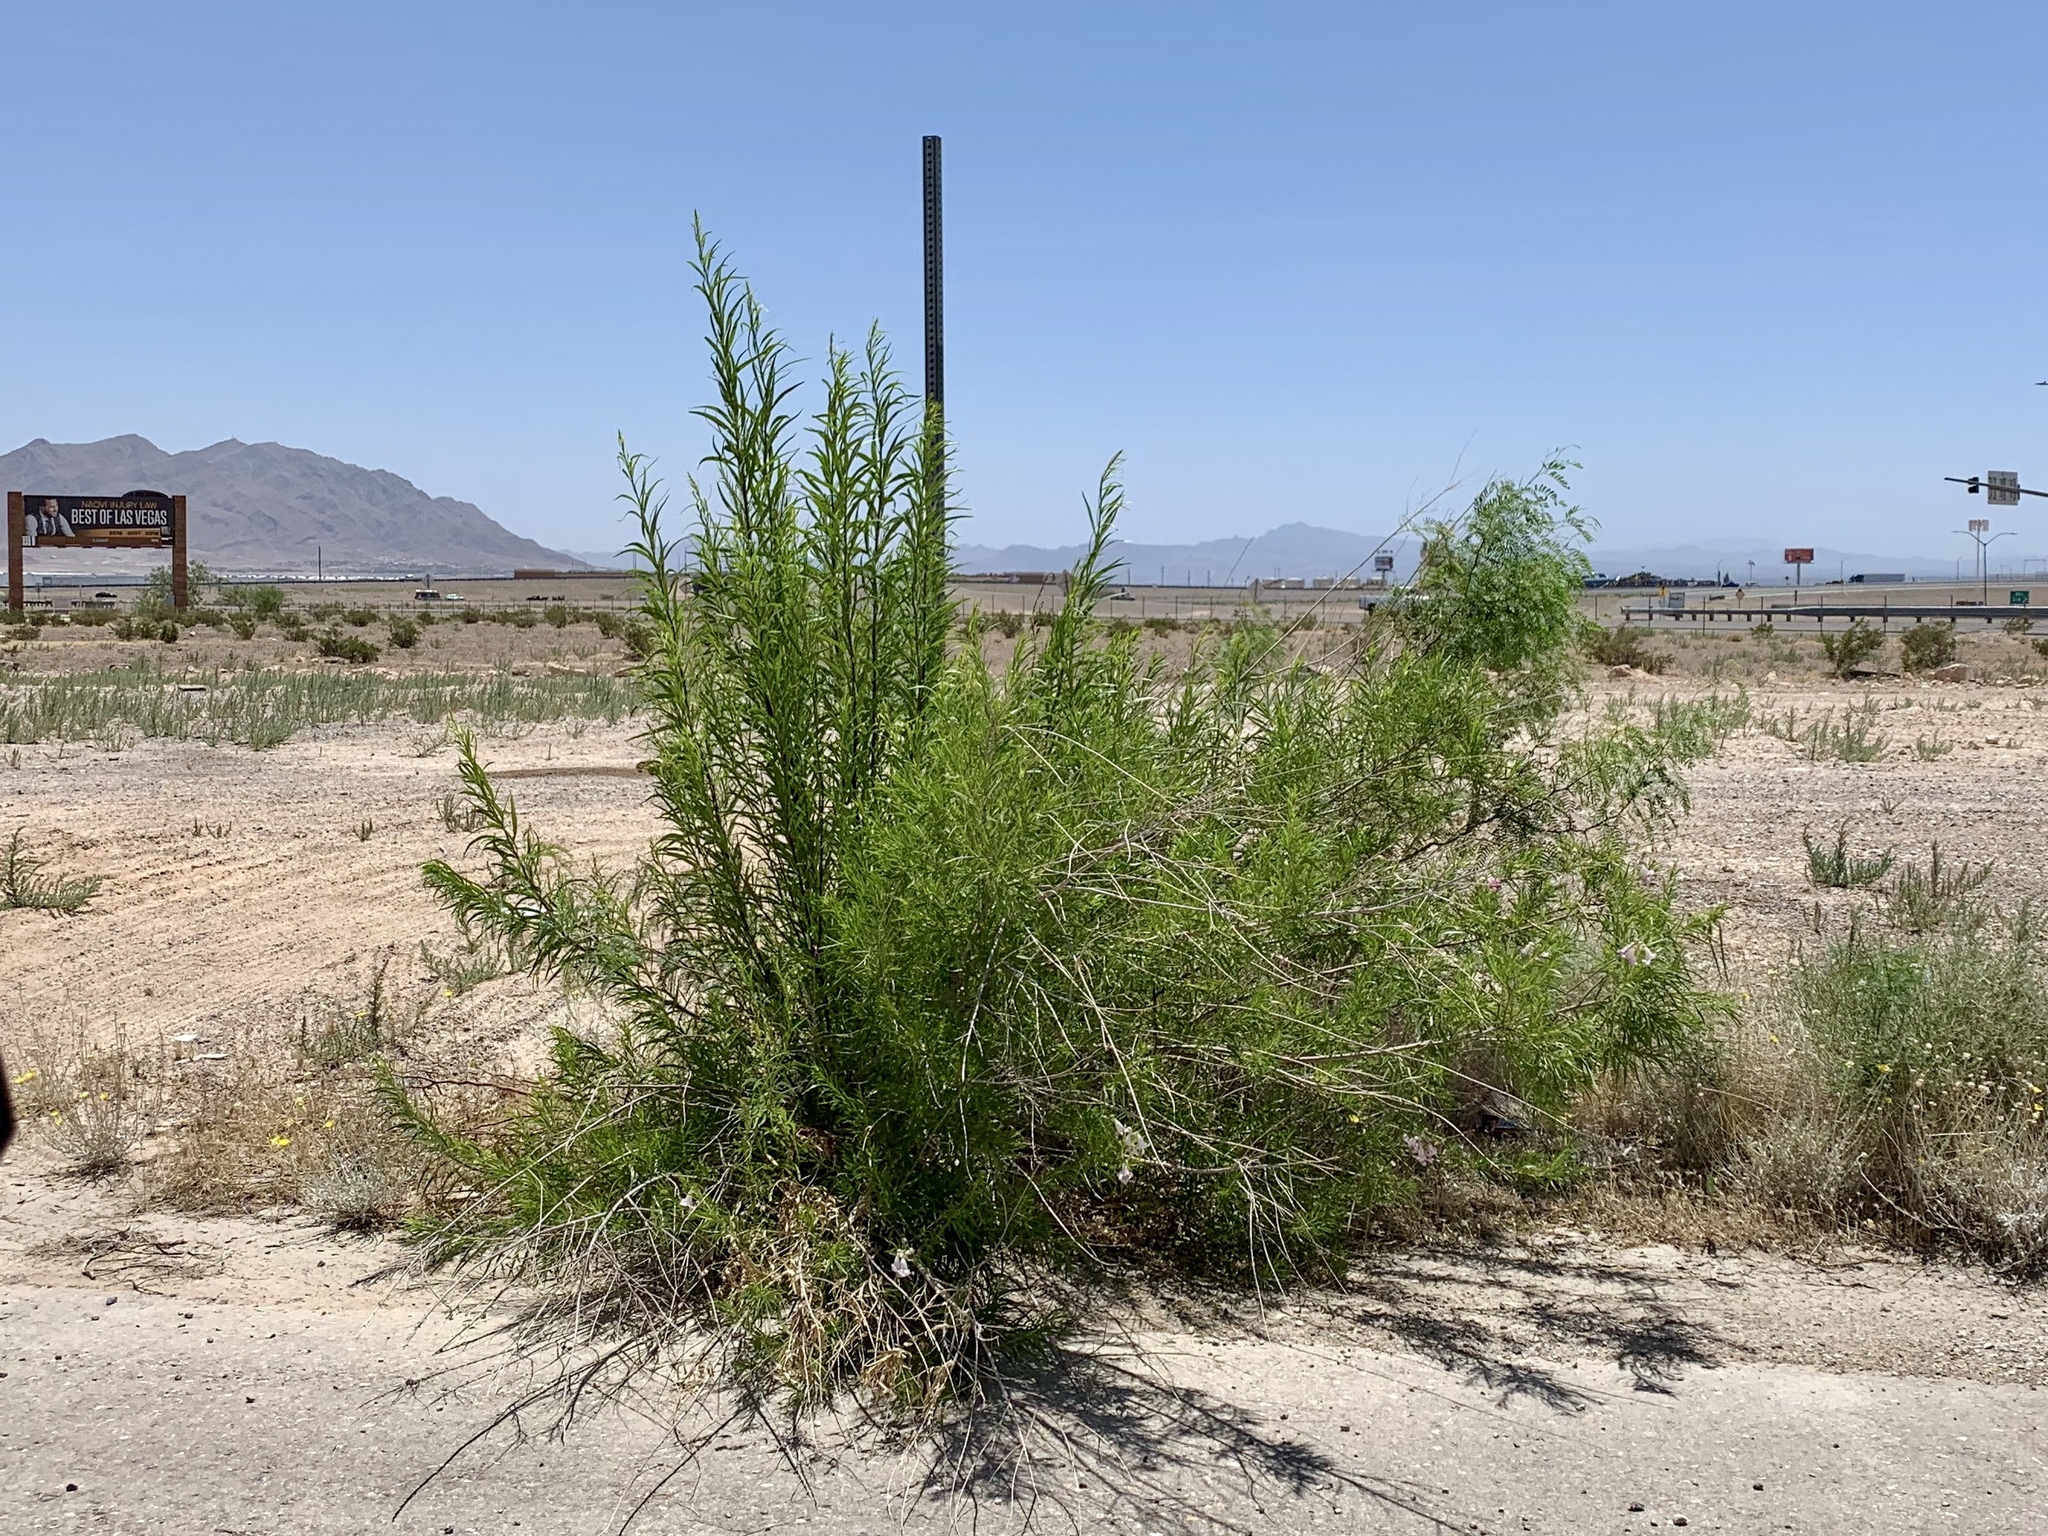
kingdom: Plantae
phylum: Tracheophyta
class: Magnoliopsida
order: Lamiales
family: Bignoniaceae
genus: Chilopsis
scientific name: Chilopsis linearis
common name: Desert-willow
